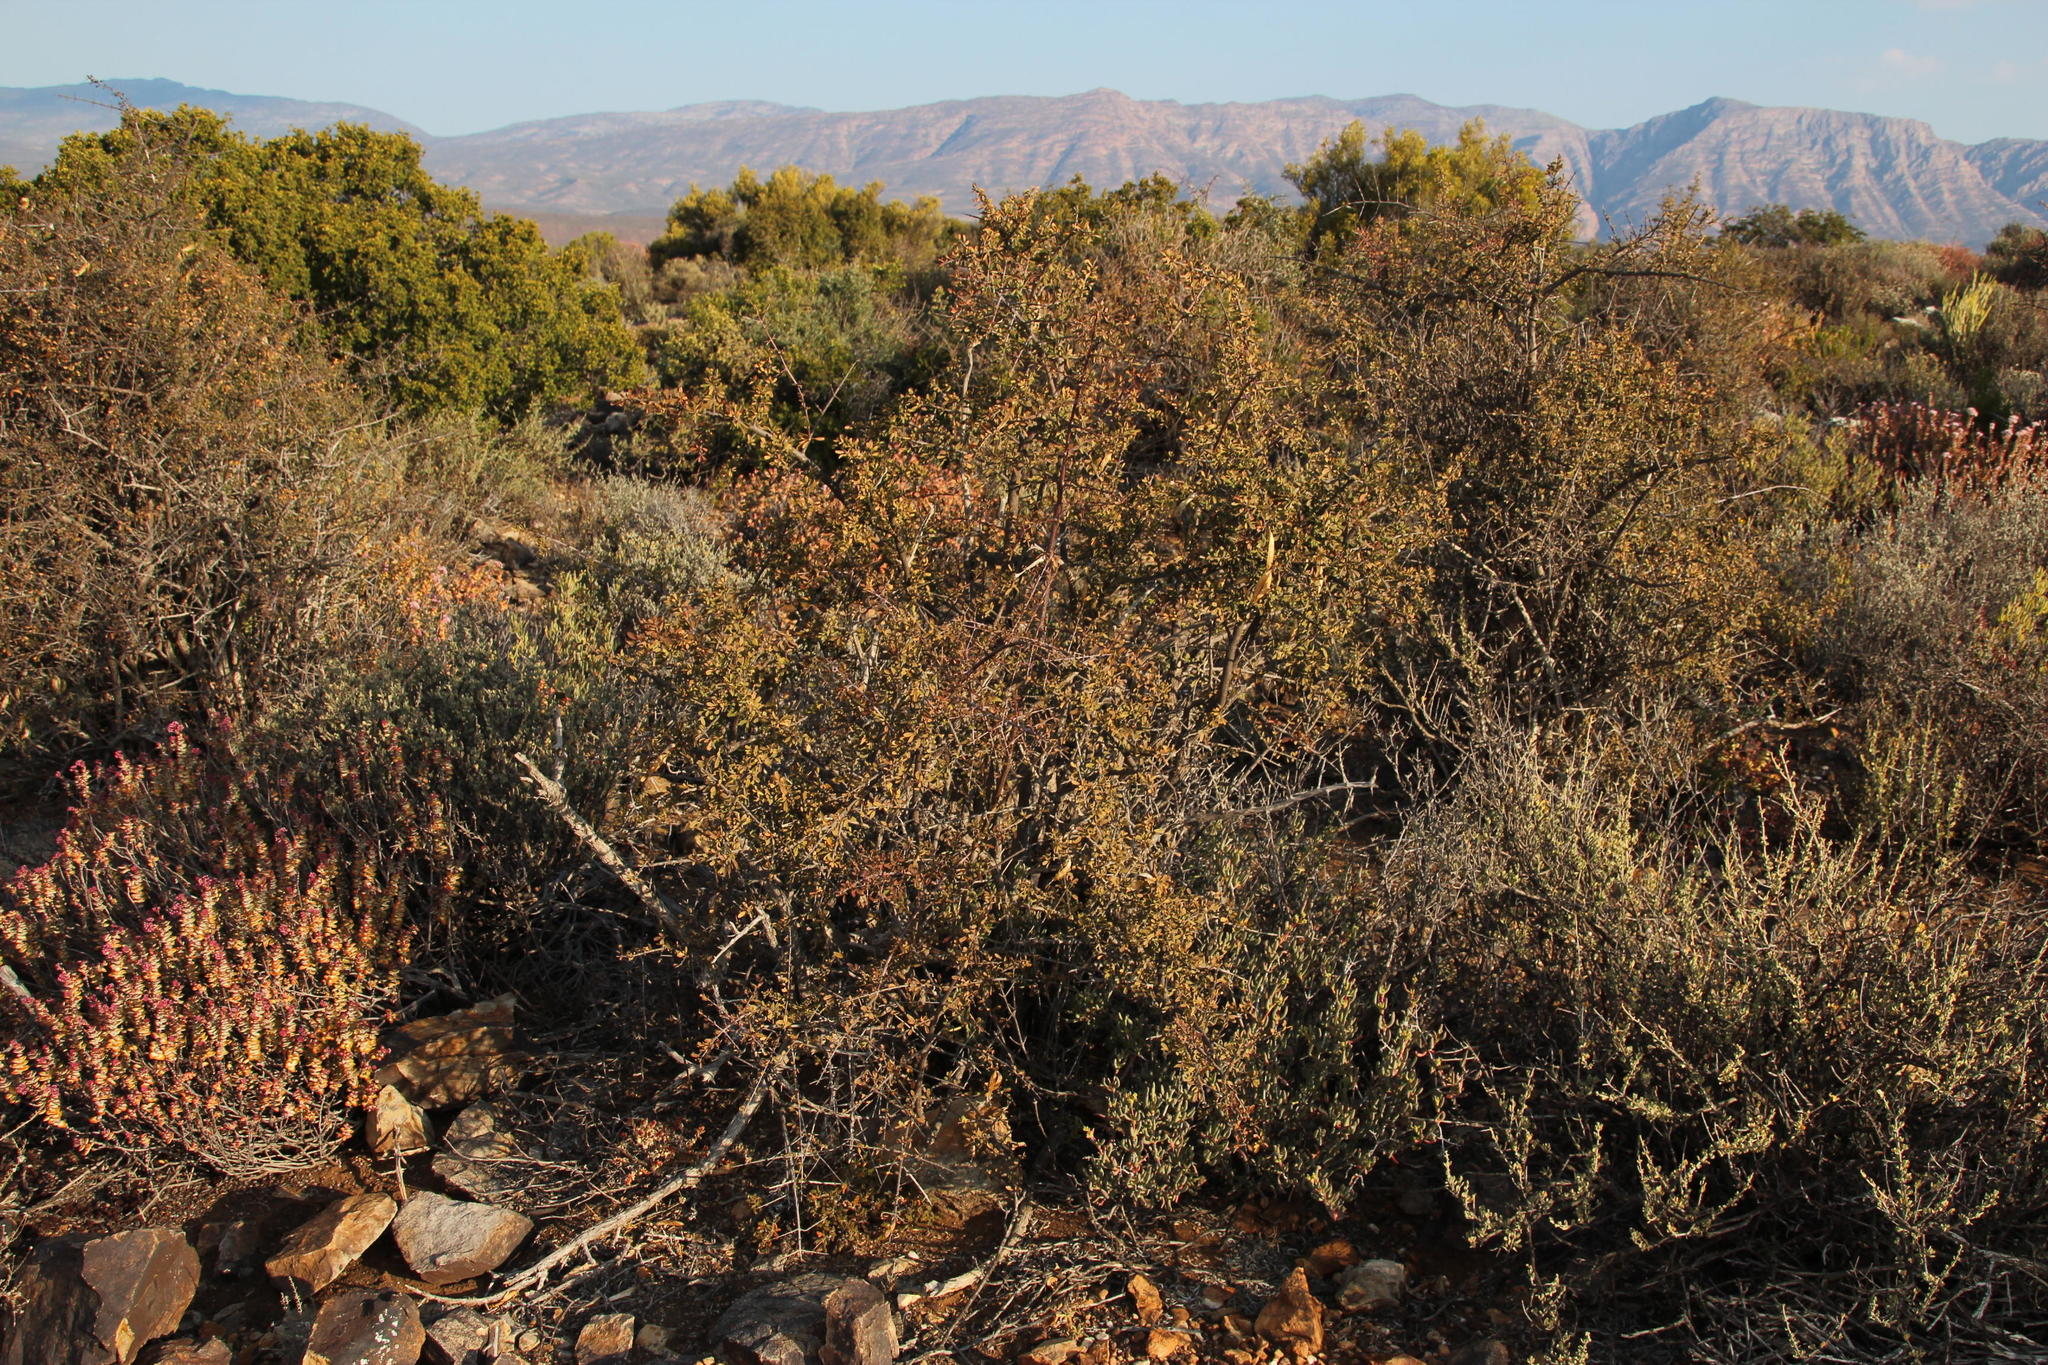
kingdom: Plantae
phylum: Tracheophyta
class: Magnoliopsida
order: Lamiales
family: Bignoniaceae
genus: Rhigozum
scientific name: Rhigozum obovatum
